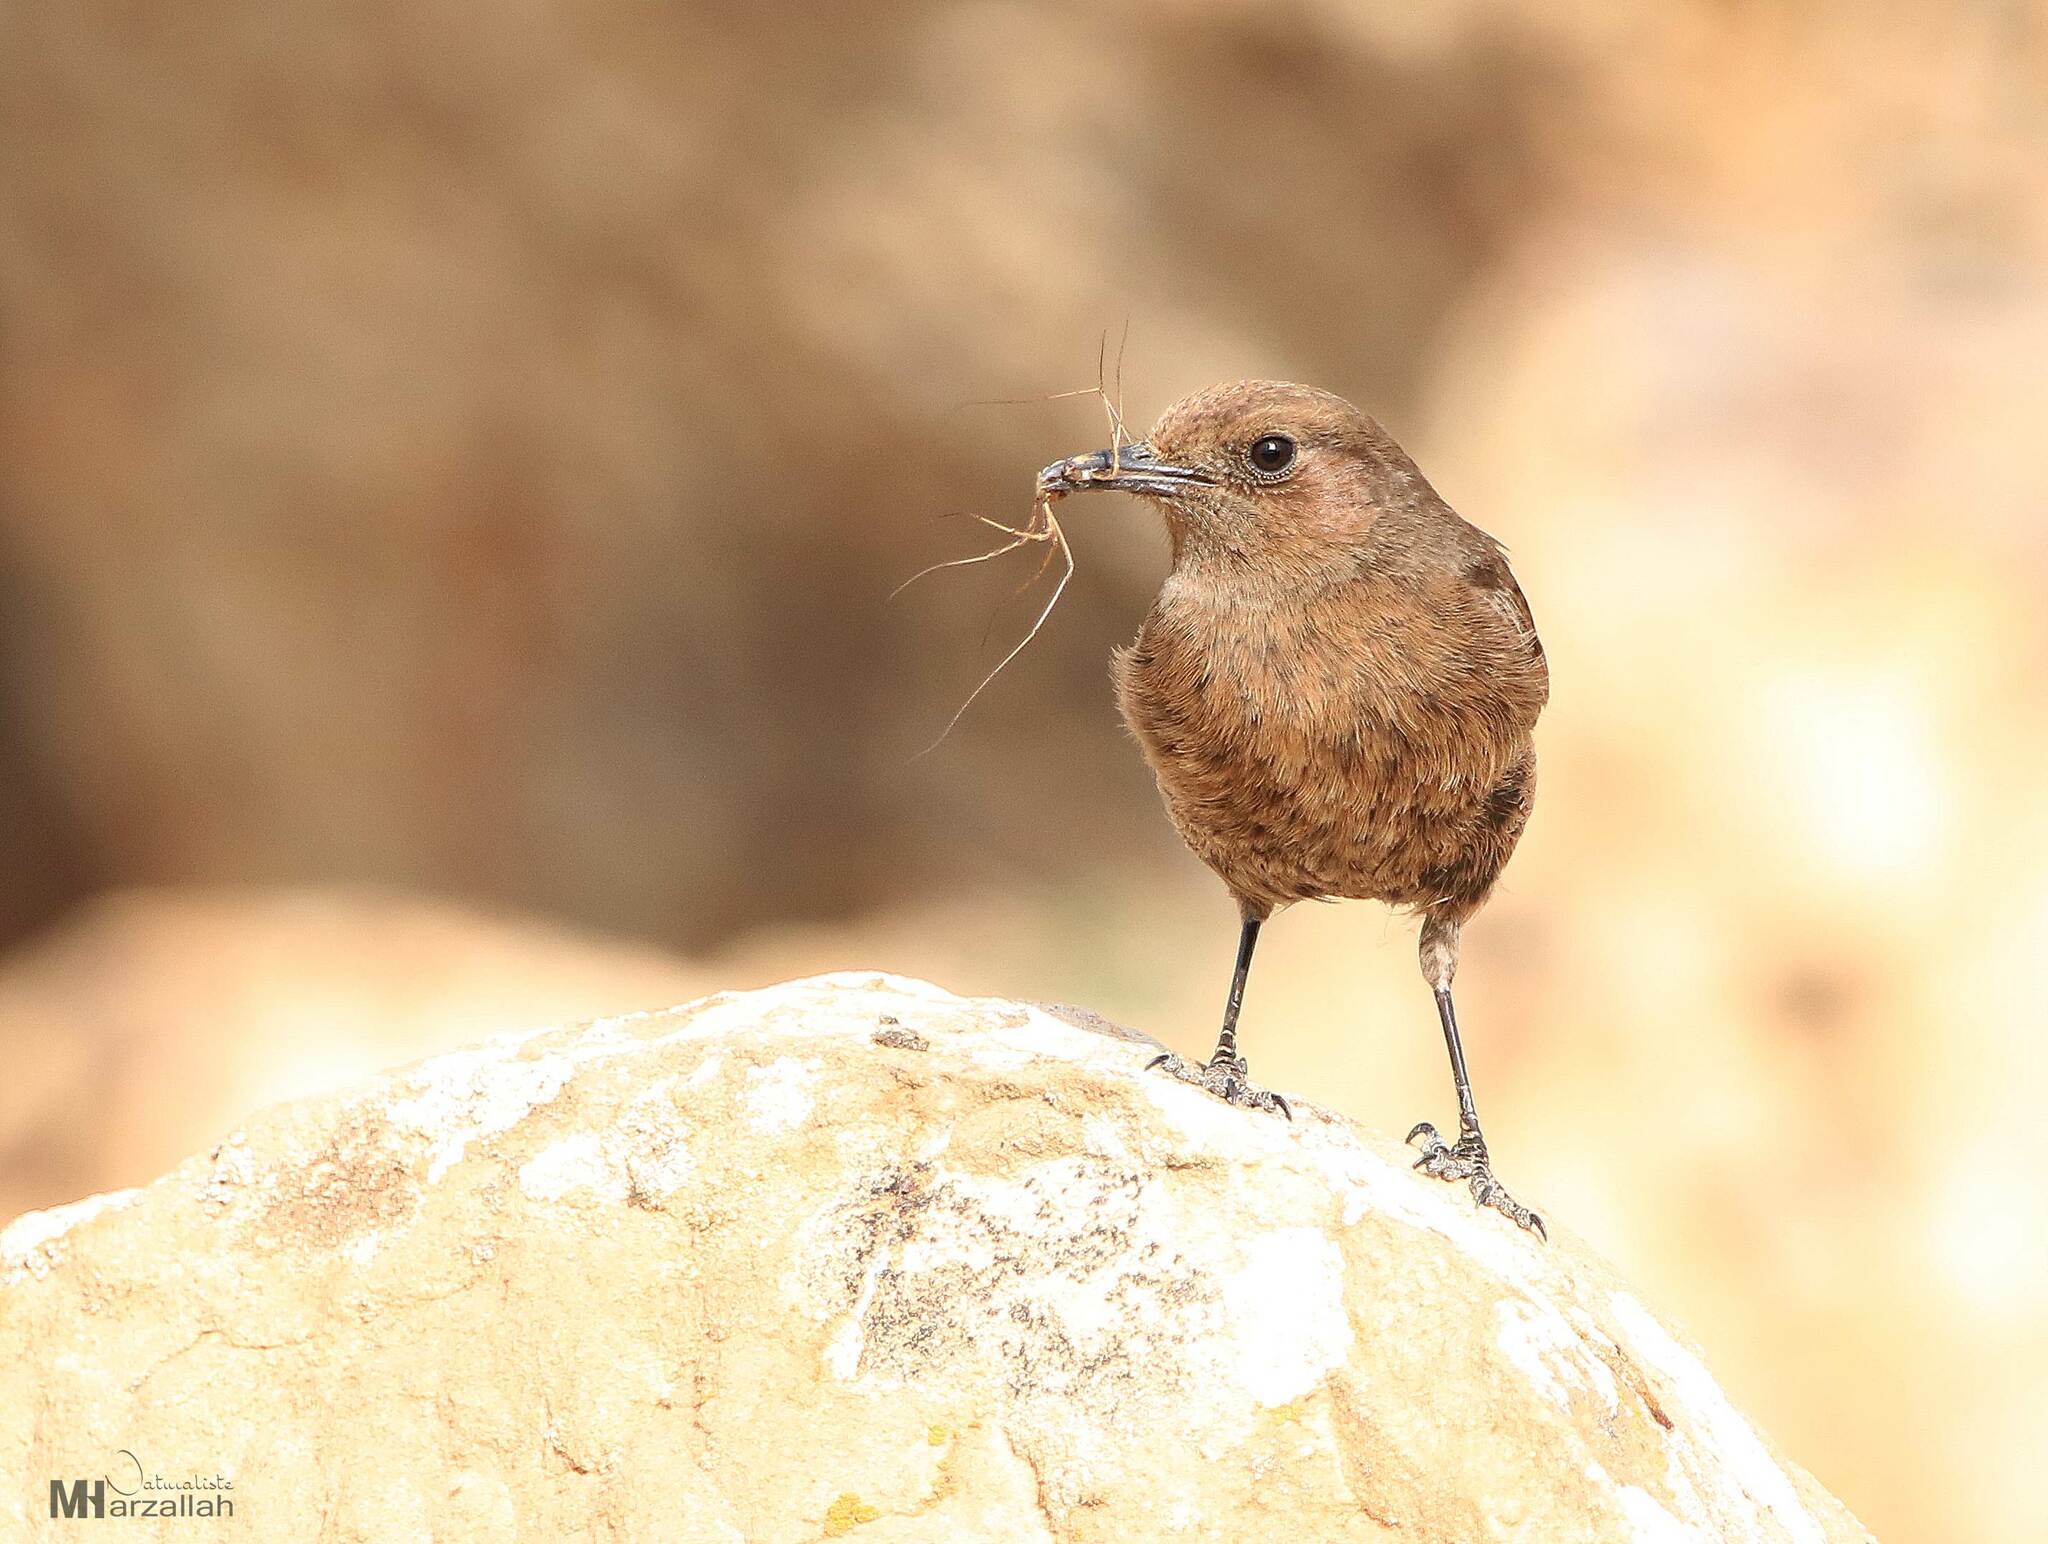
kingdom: Animalia
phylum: Chordata
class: Aves
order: Passeriformes
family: Muscicapidae
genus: Oenanthe
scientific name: Oenanthe leucura
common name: Black wheatear
